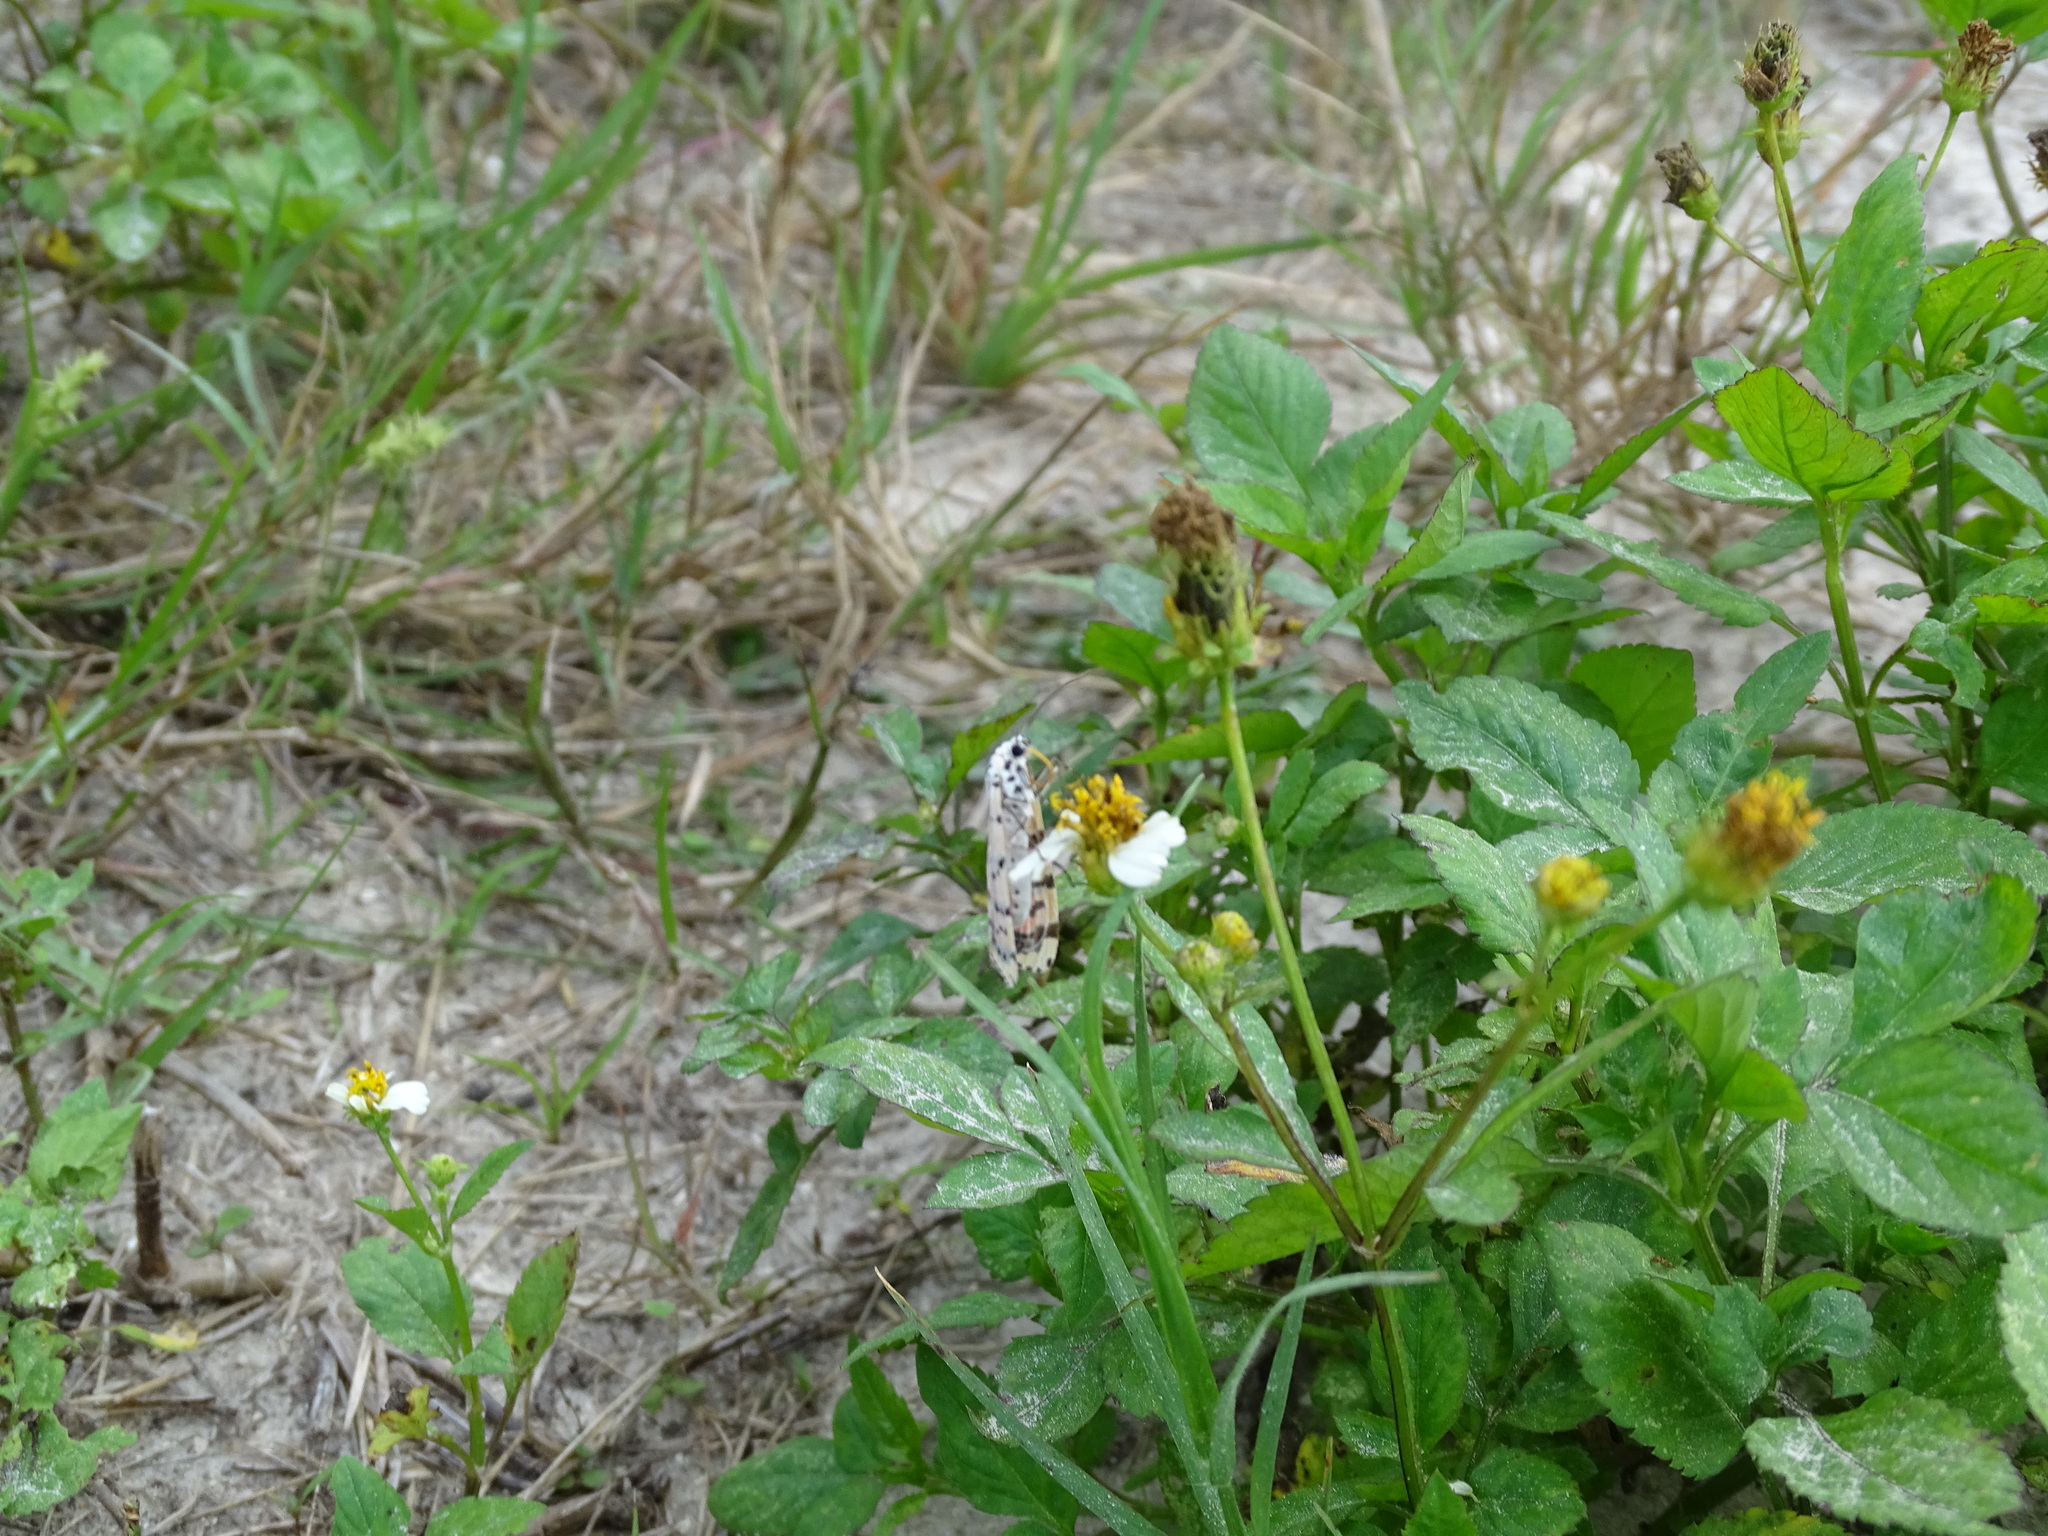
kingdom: Animalia
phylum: Arthropoda
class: Insecta
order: Lepidoptera
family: Erebidae
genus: Utetheisa
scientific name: Utetheisa ornatrix
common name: Beautiful utetheisa
